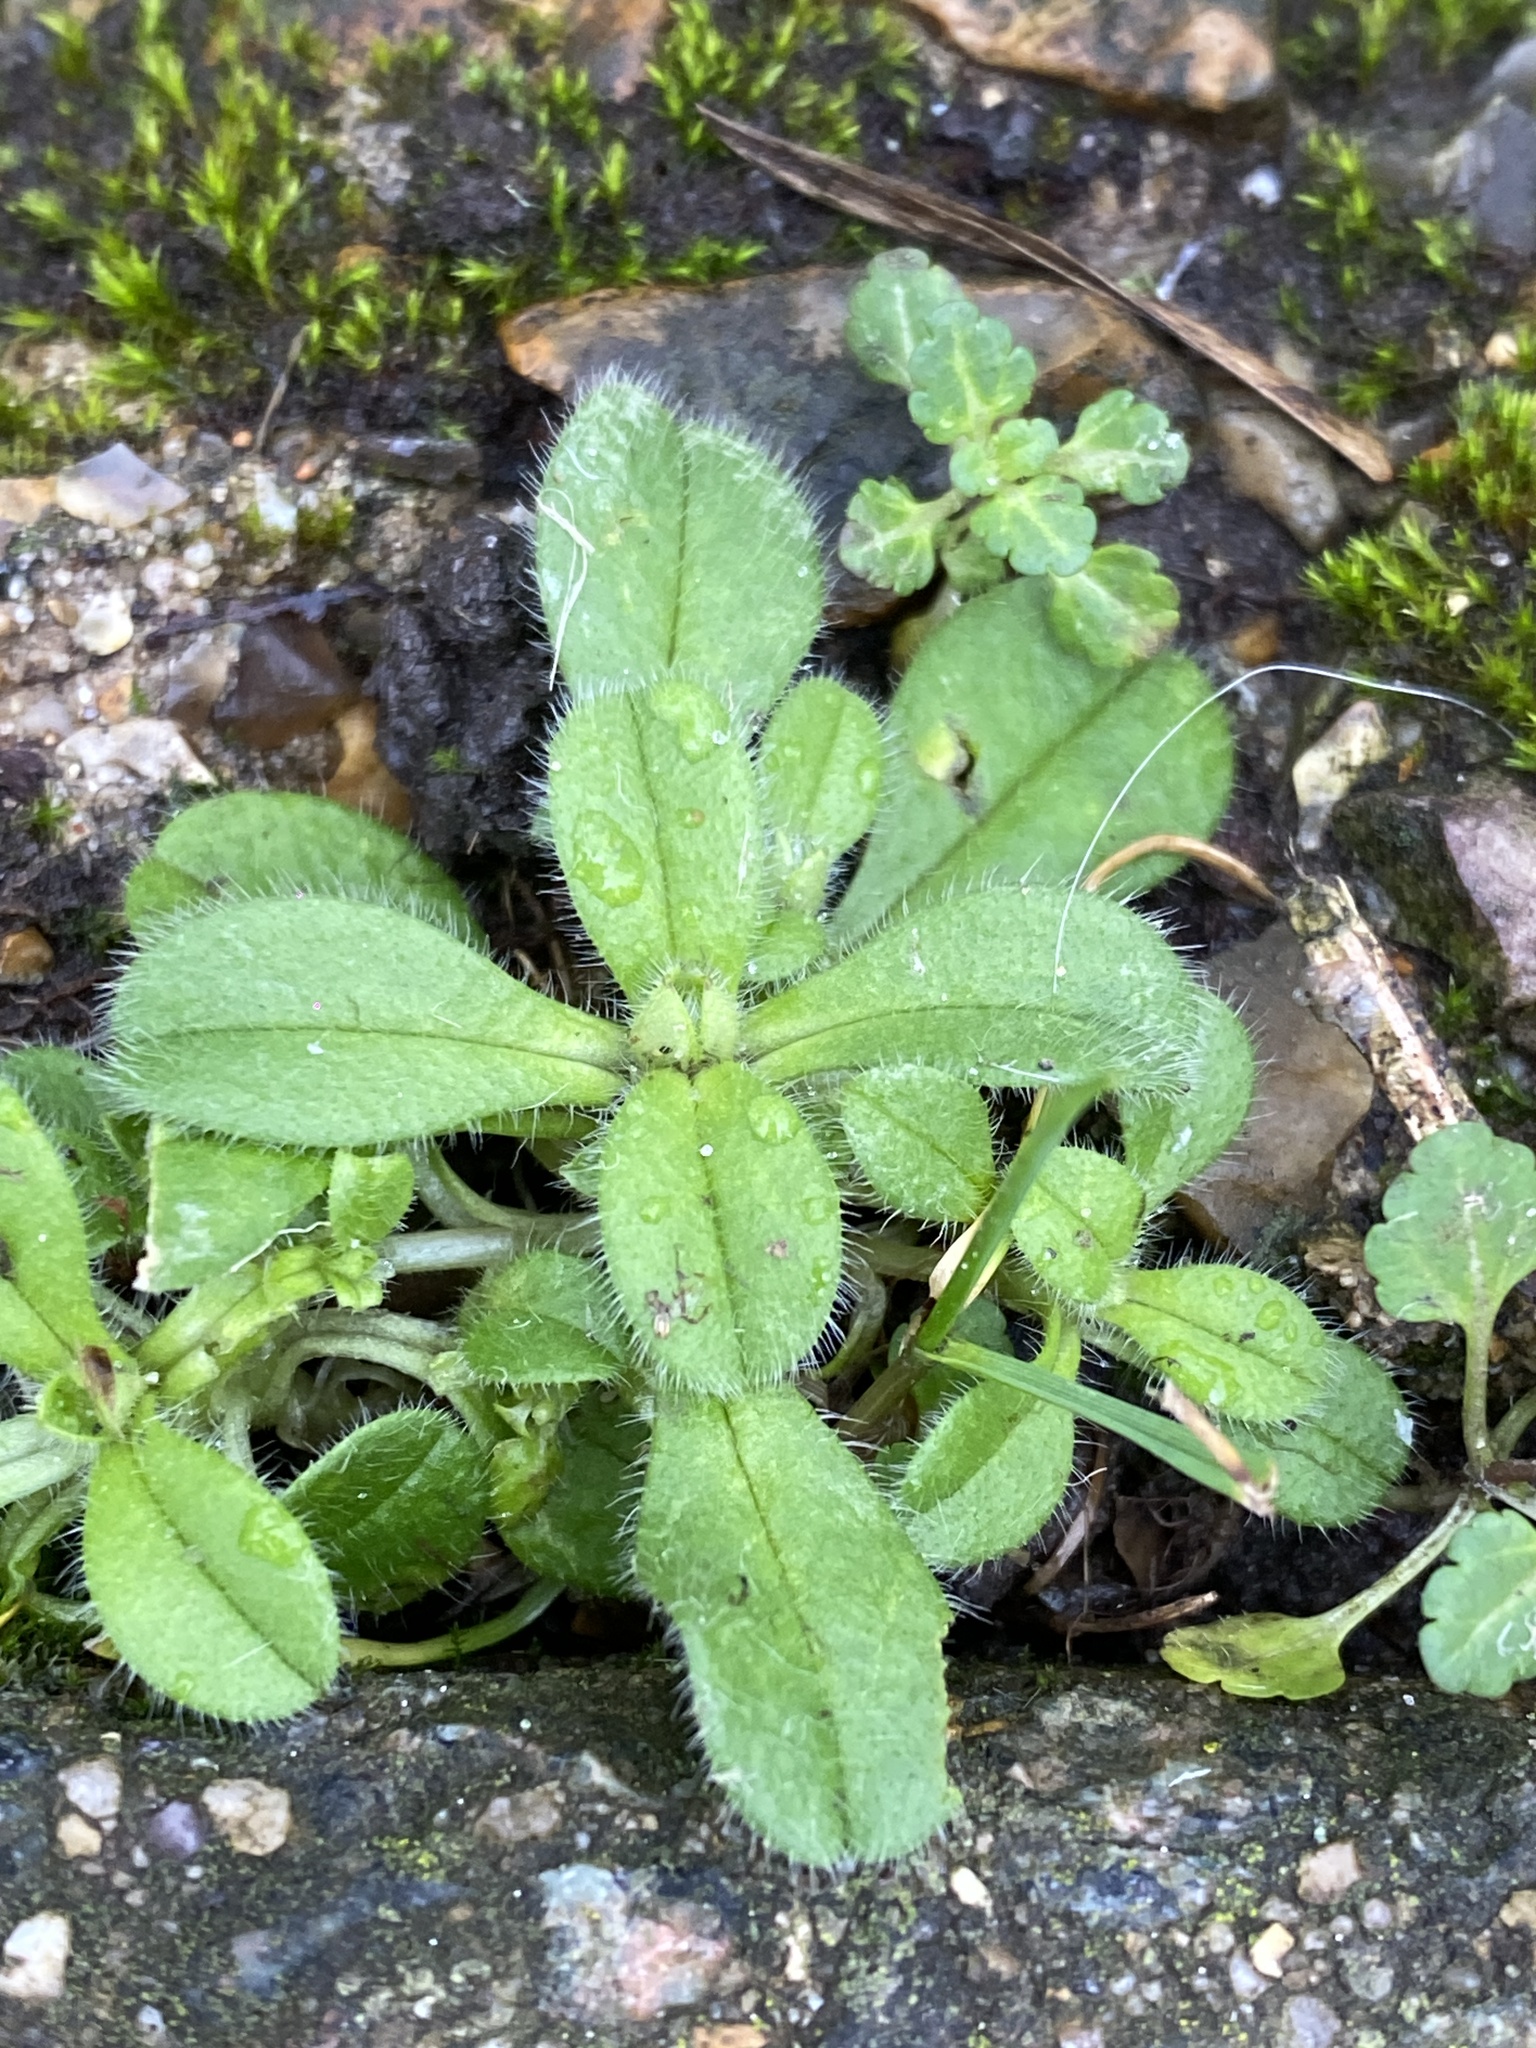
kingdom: Plantae
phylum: Tracheophyta
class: Magnoliopsida
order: Caryophyllales
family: Caryophyllaceae
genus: Cerastium
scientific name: Cerastium glomeratum
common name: Sticky chickweed
